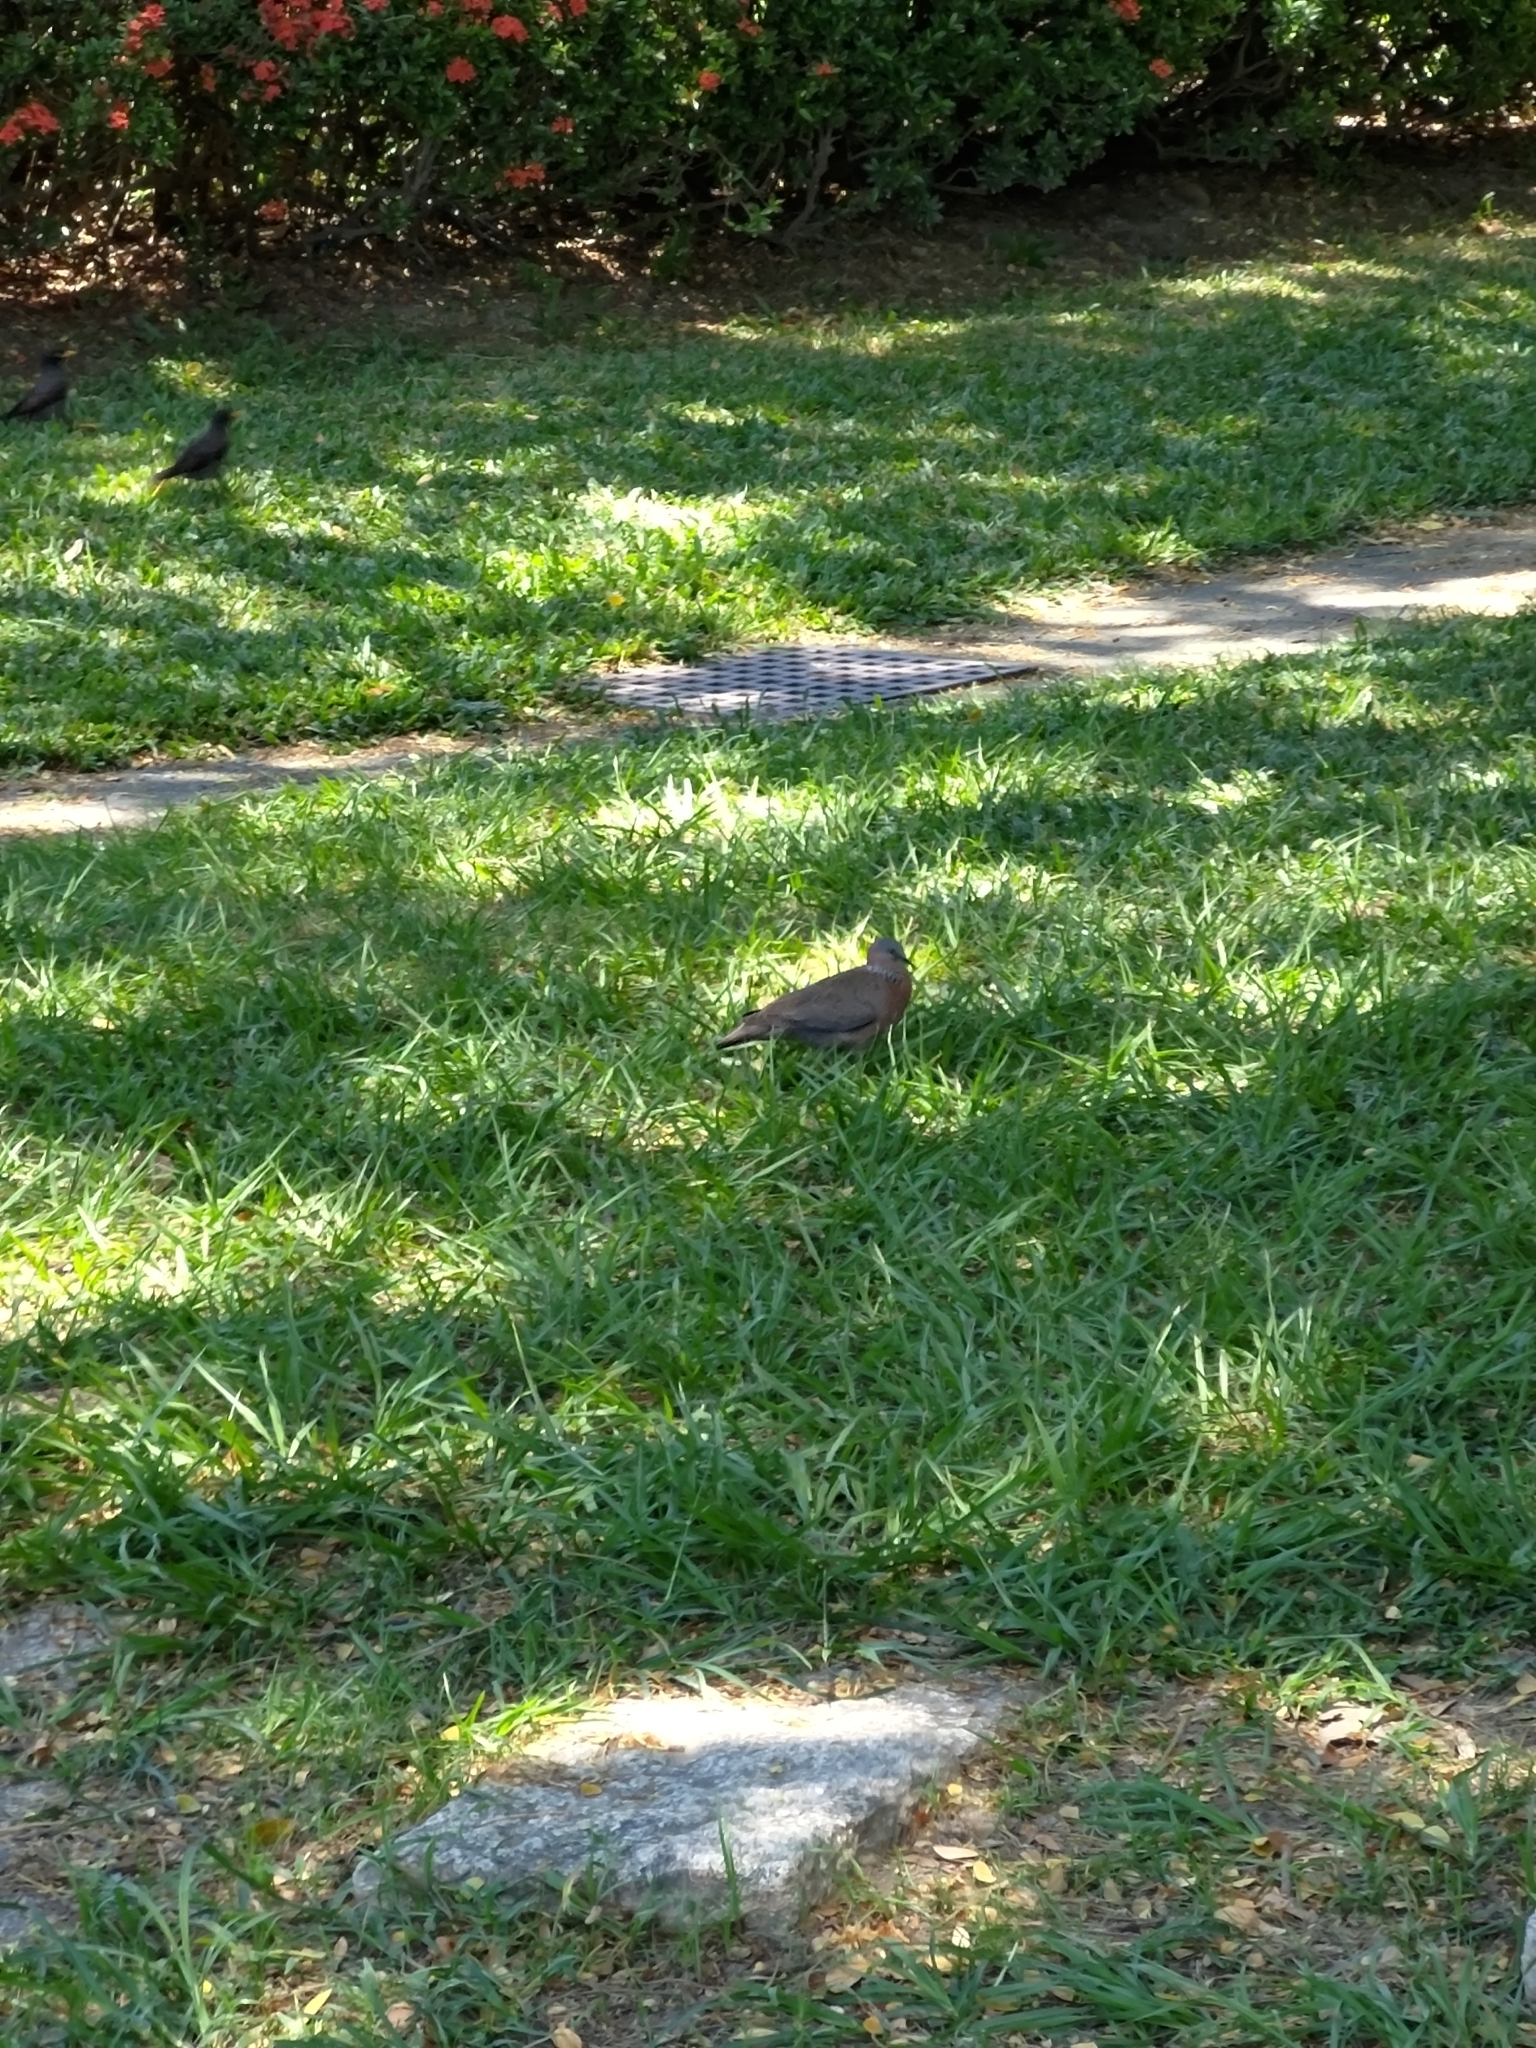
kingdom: Animalia
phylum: Chordata
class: Aves
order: Columbiformes
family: Columbidae
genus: Spilopelia
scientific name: Spilopelia chinensis
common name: Spotted dove
